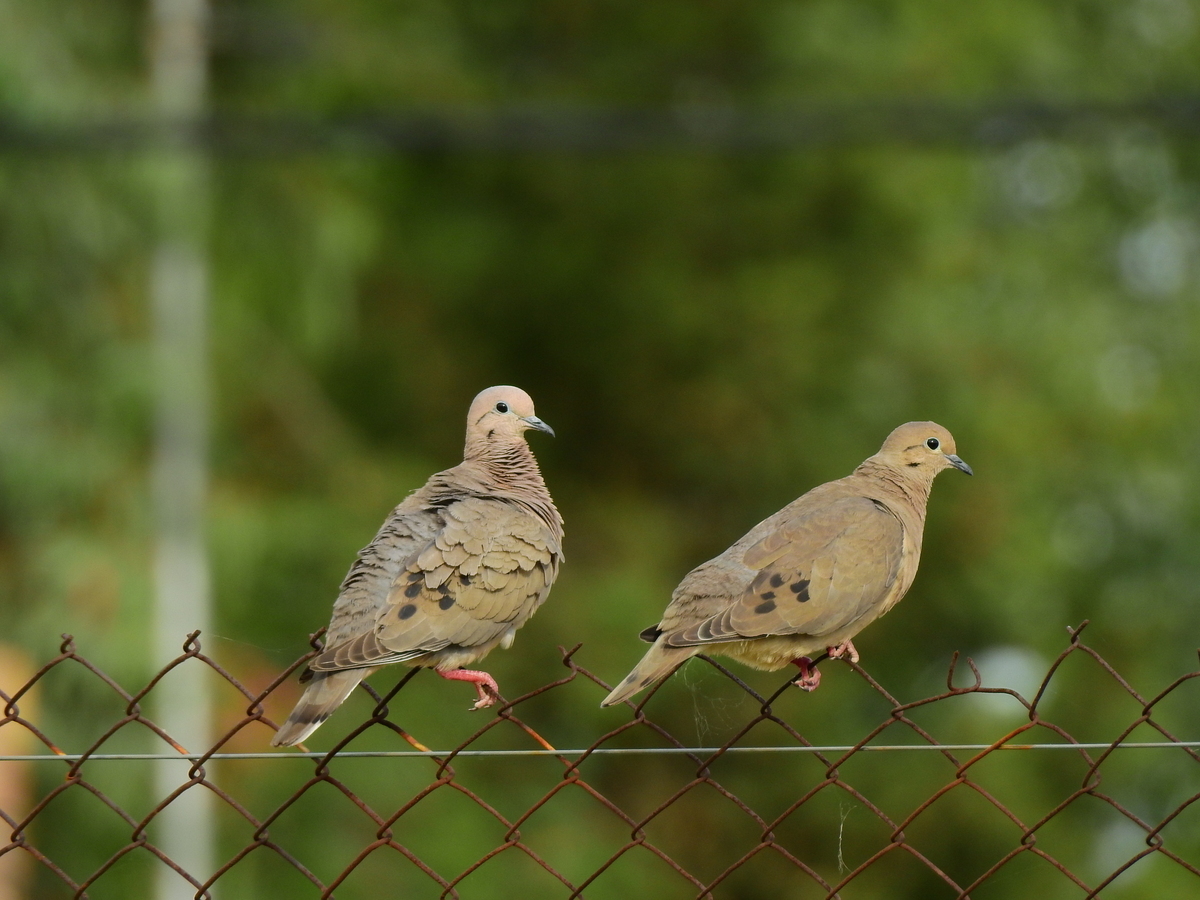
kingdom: Animalia
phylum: Chordata
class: Aves
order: Columbiformes
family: Columbidae
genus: Zenaida
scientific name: Zenaida auriculata
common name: Eared dove
